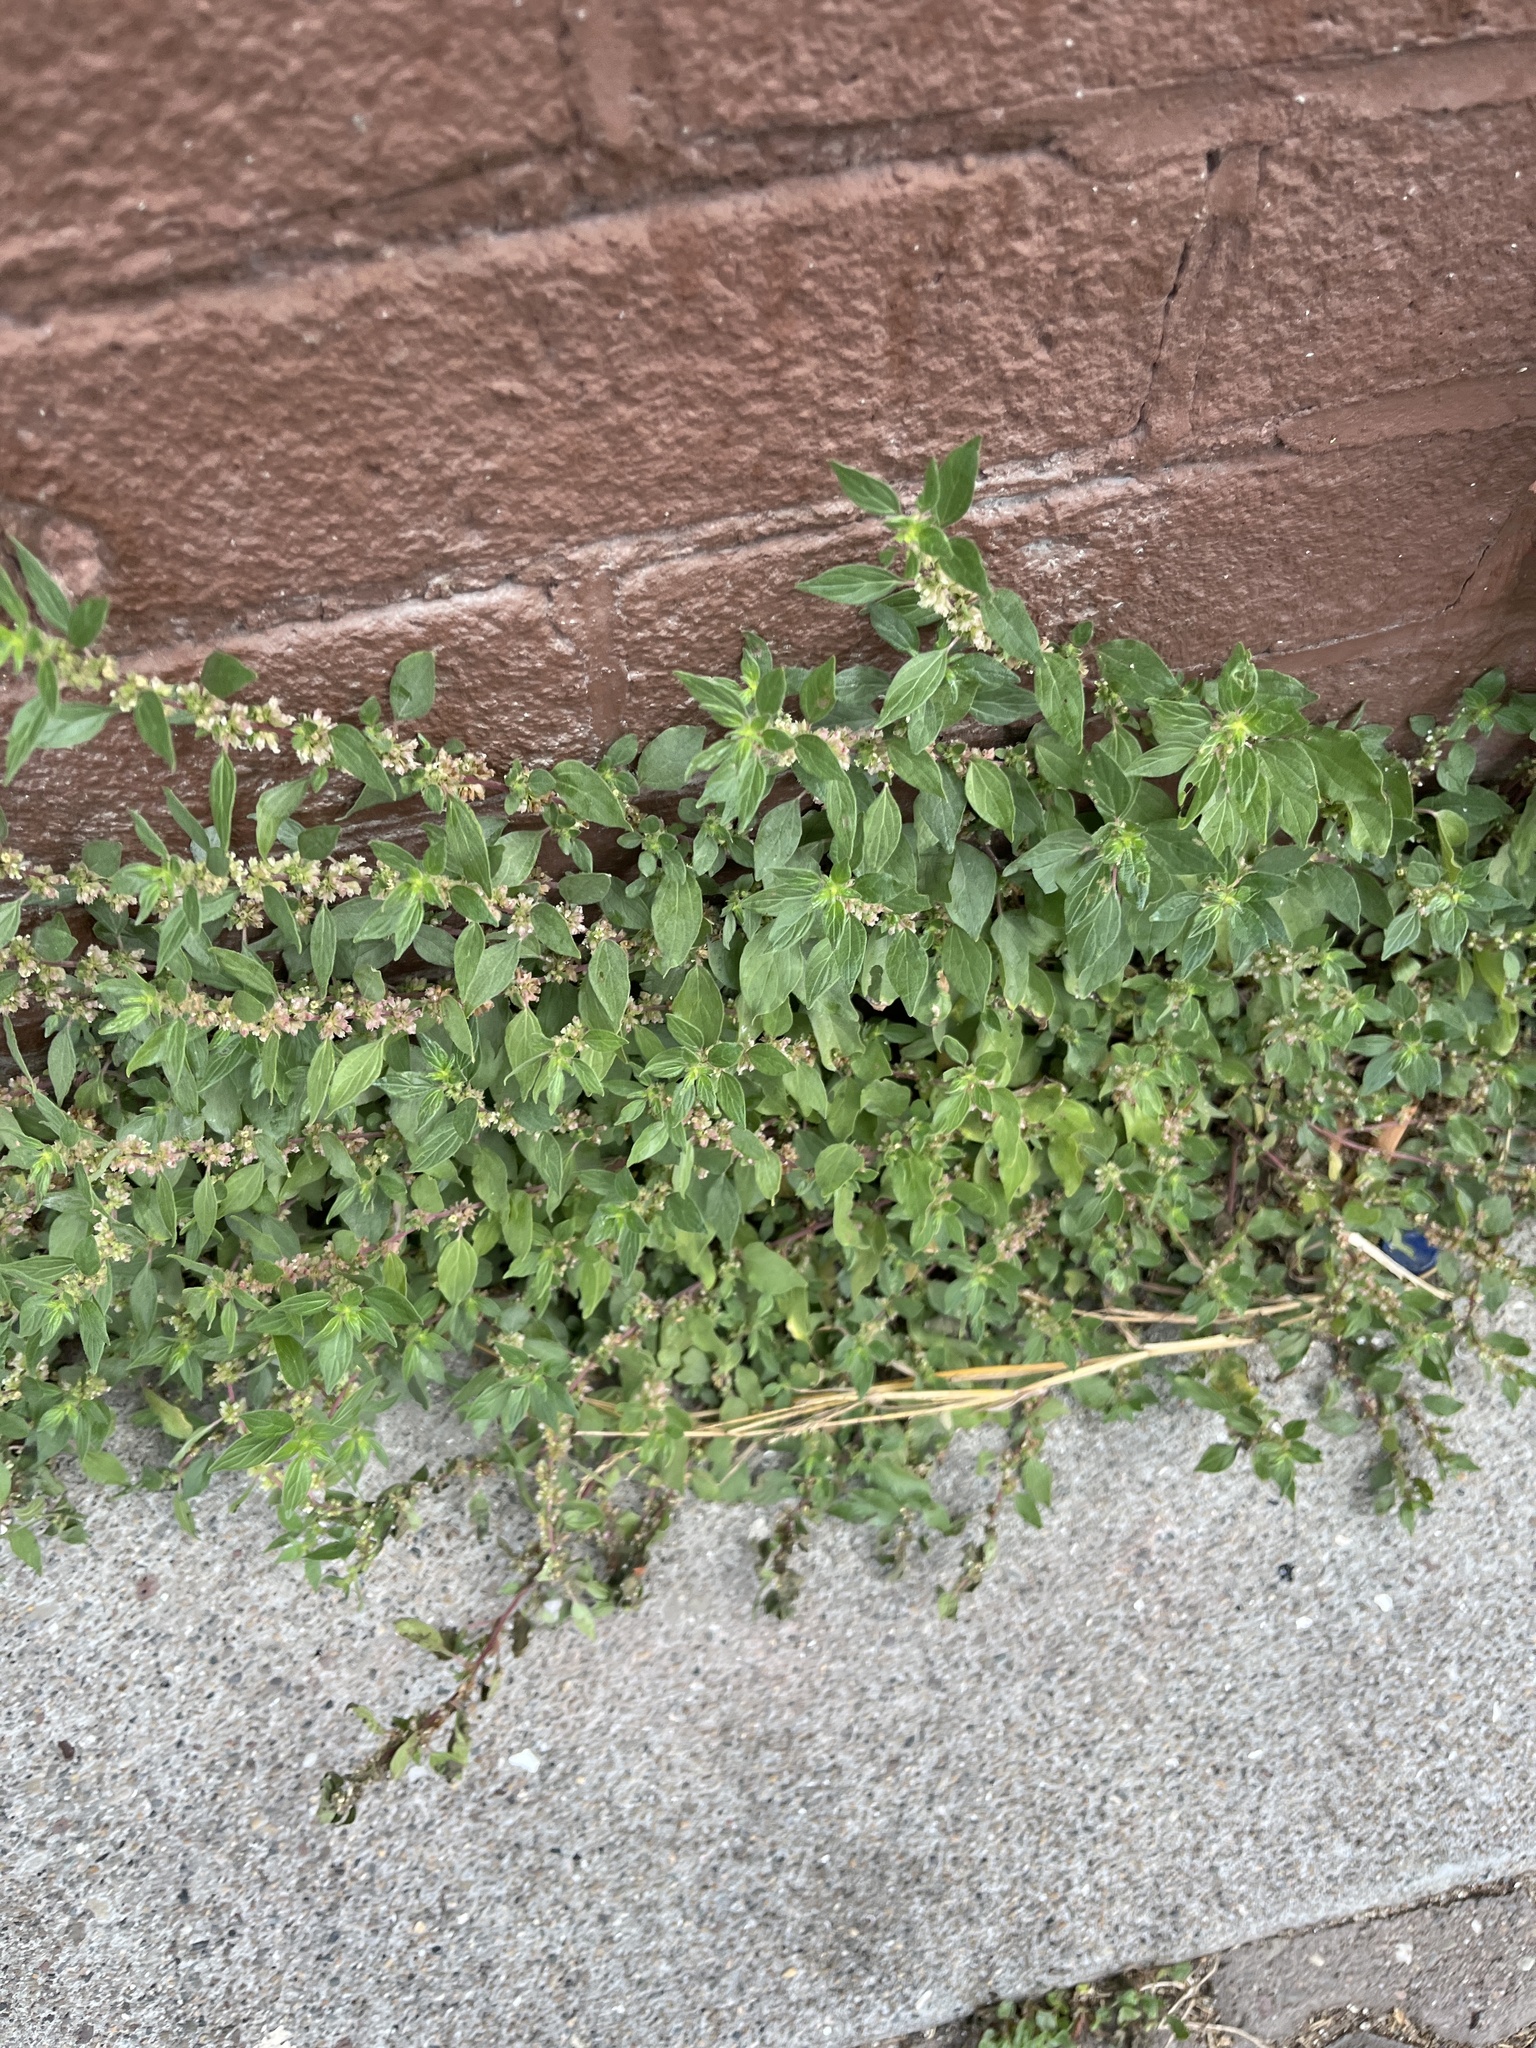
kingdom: Plantae
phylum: Tracheophyta
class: Magnoliopsida
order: Rosales
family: Urticaceae
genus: Parietaria
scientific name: Parietaria judaica
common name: Pellitory-of-the-wall
